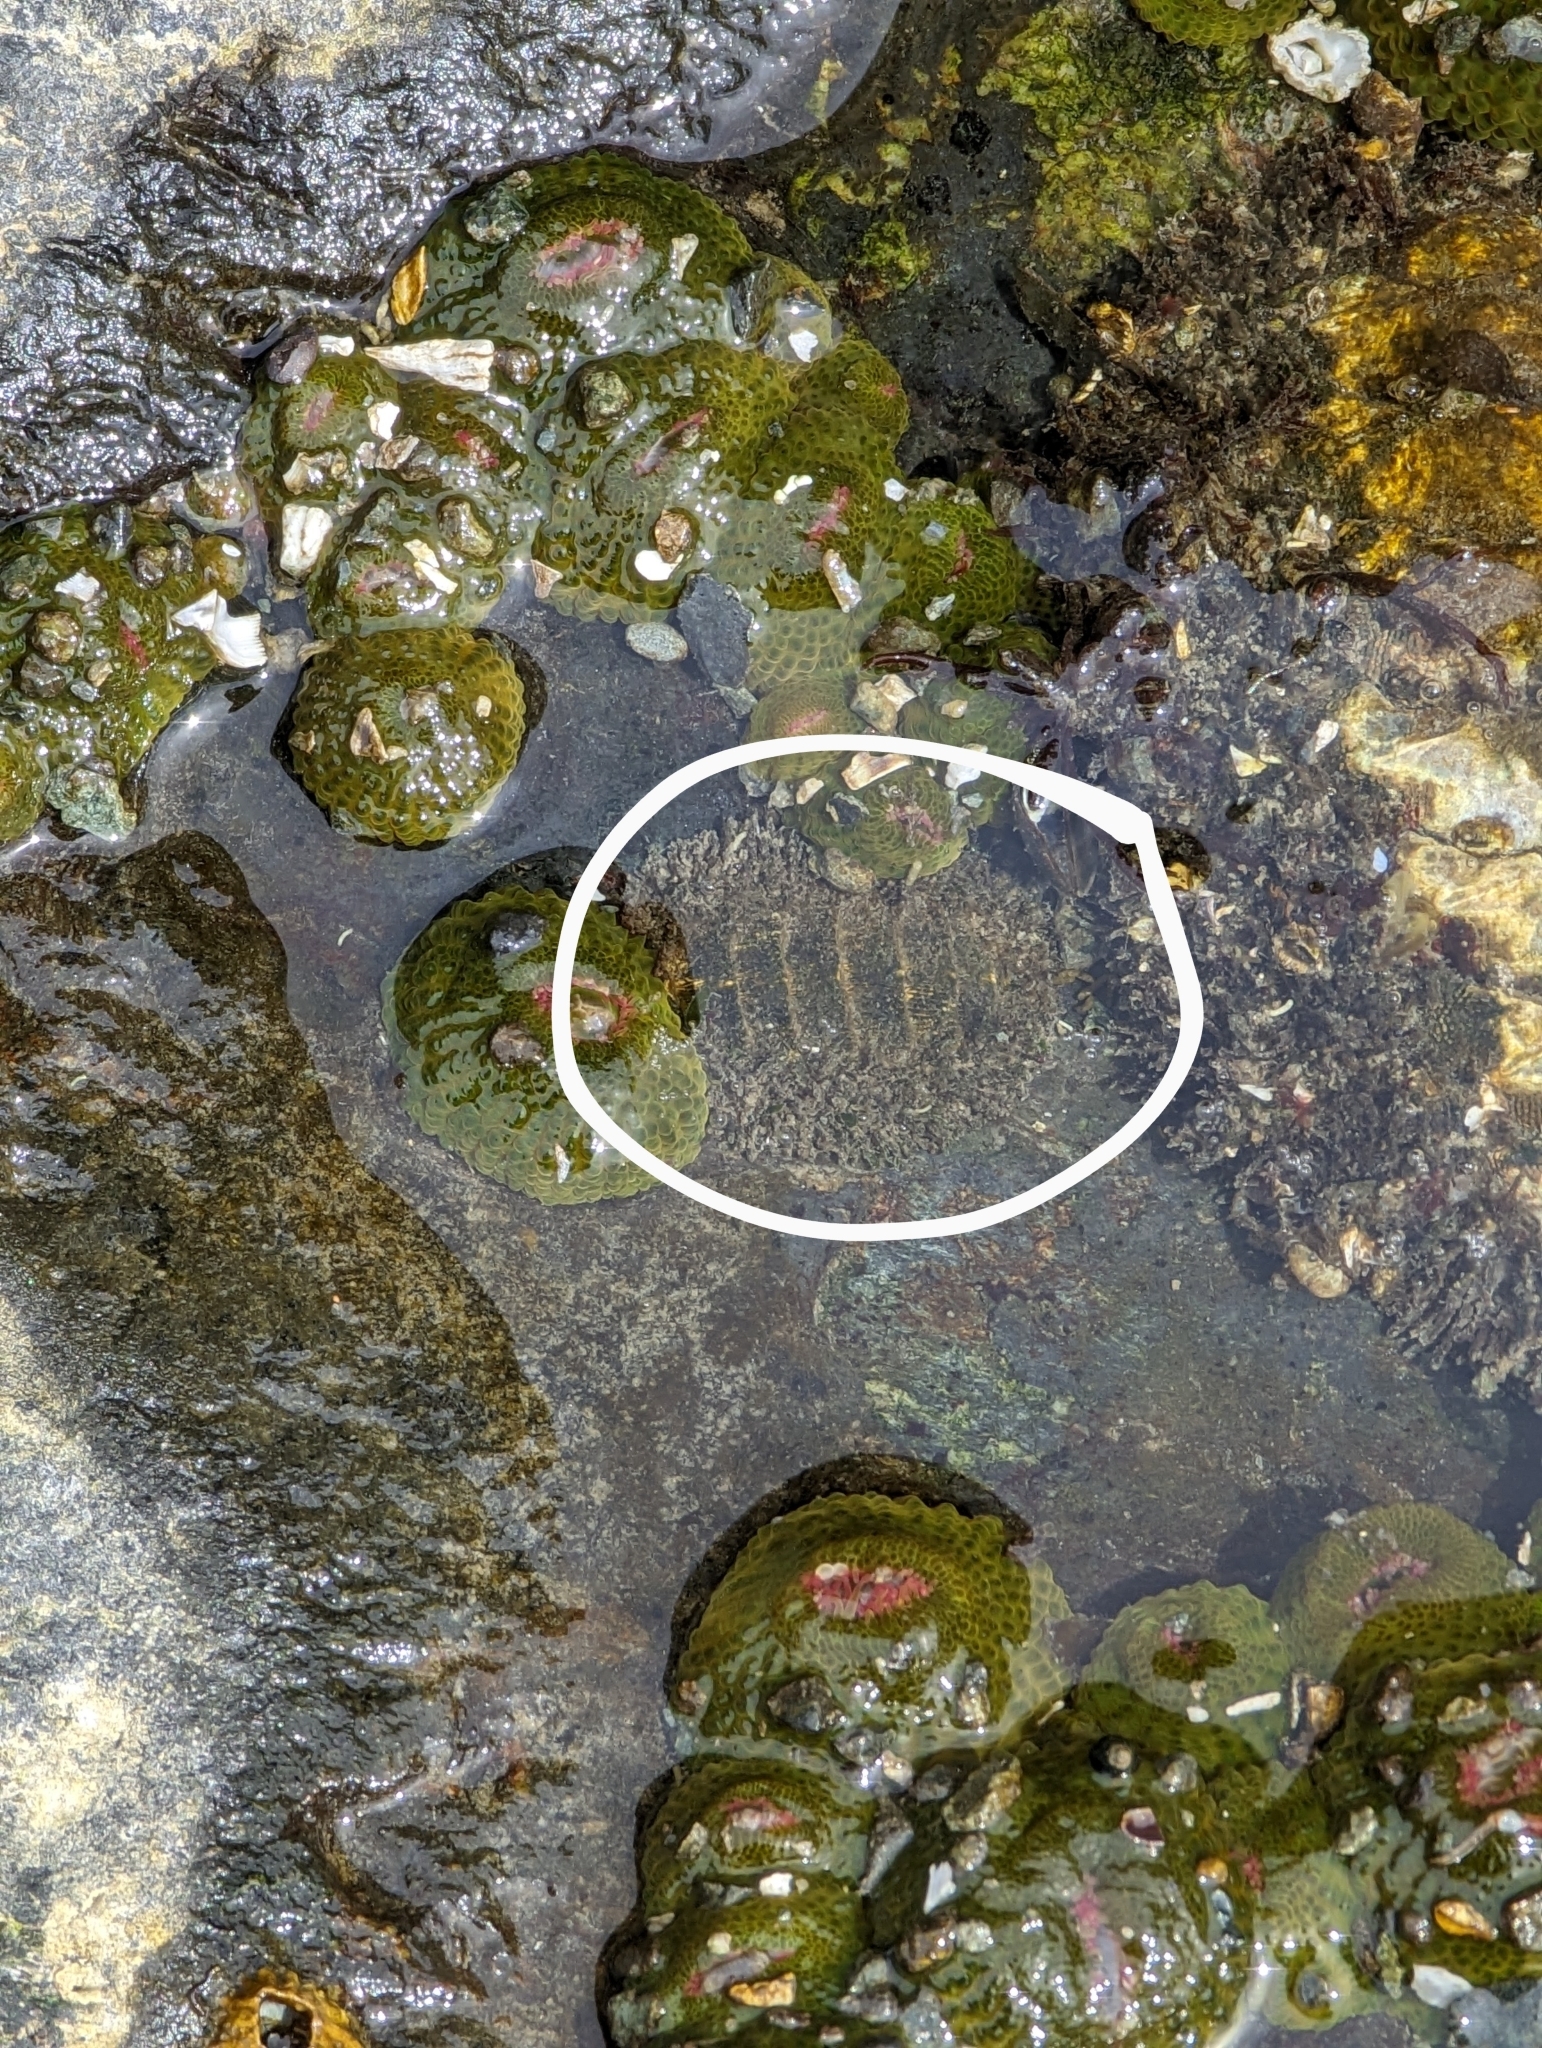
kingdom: Animalia
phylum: Mollusca
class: Polyplacophora
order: Chitonida
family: Mopaliidae
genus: Mopalia
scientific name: Mopalia muscosa
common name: Mossy chiton
